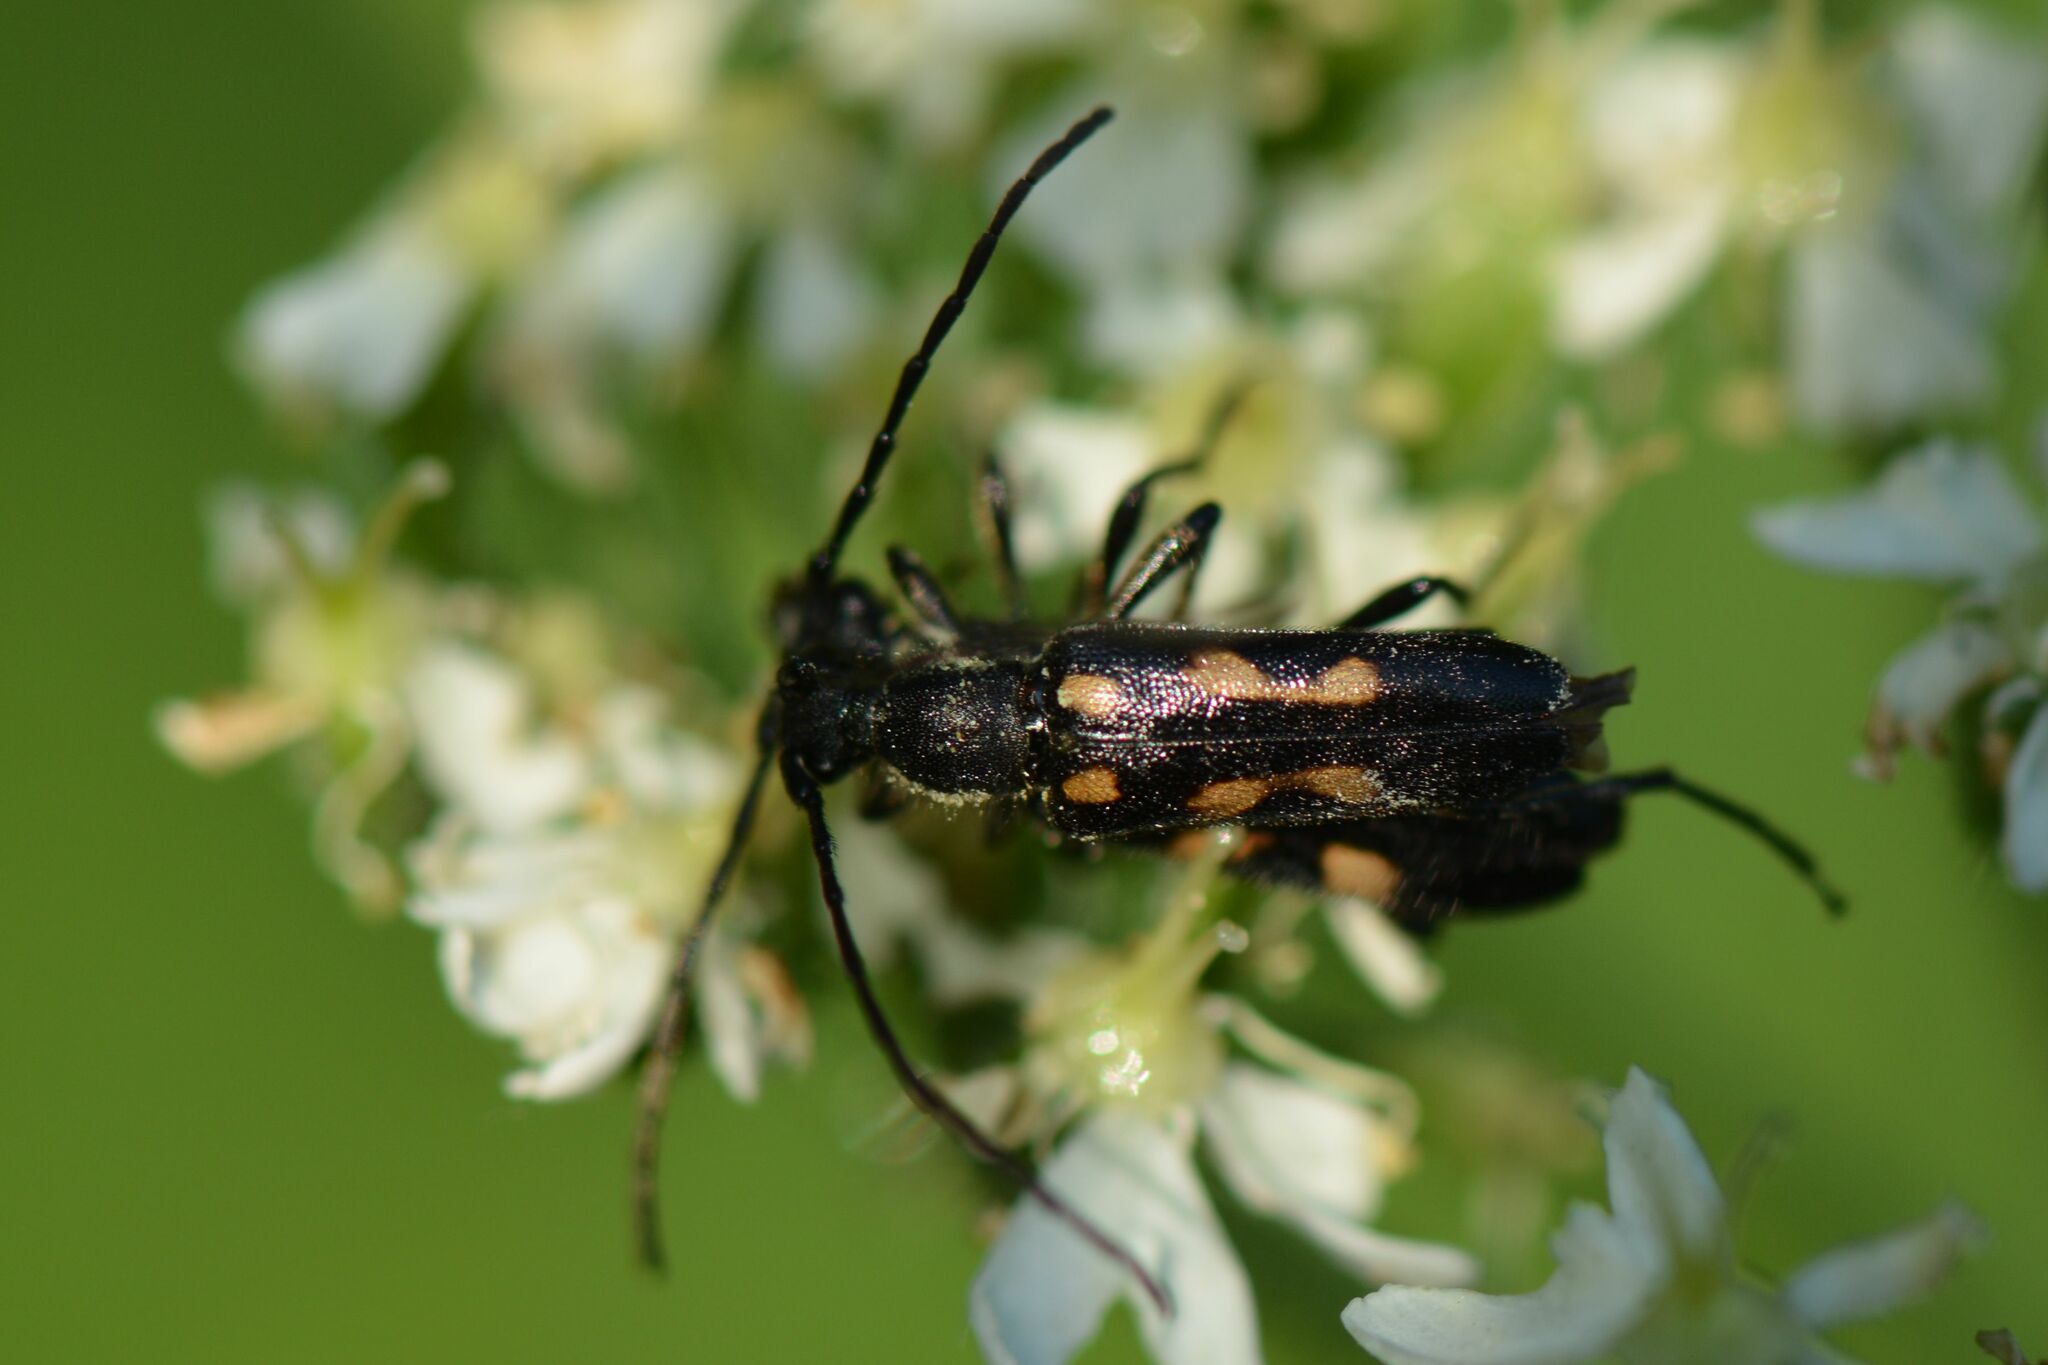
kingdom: Animalia
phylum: Arthropoda
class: Insecta
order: Coleoptera
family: Cerambycidae
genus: Anoplodera
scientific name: Anoplodera sexguttata
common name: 6 spotted longhorn
